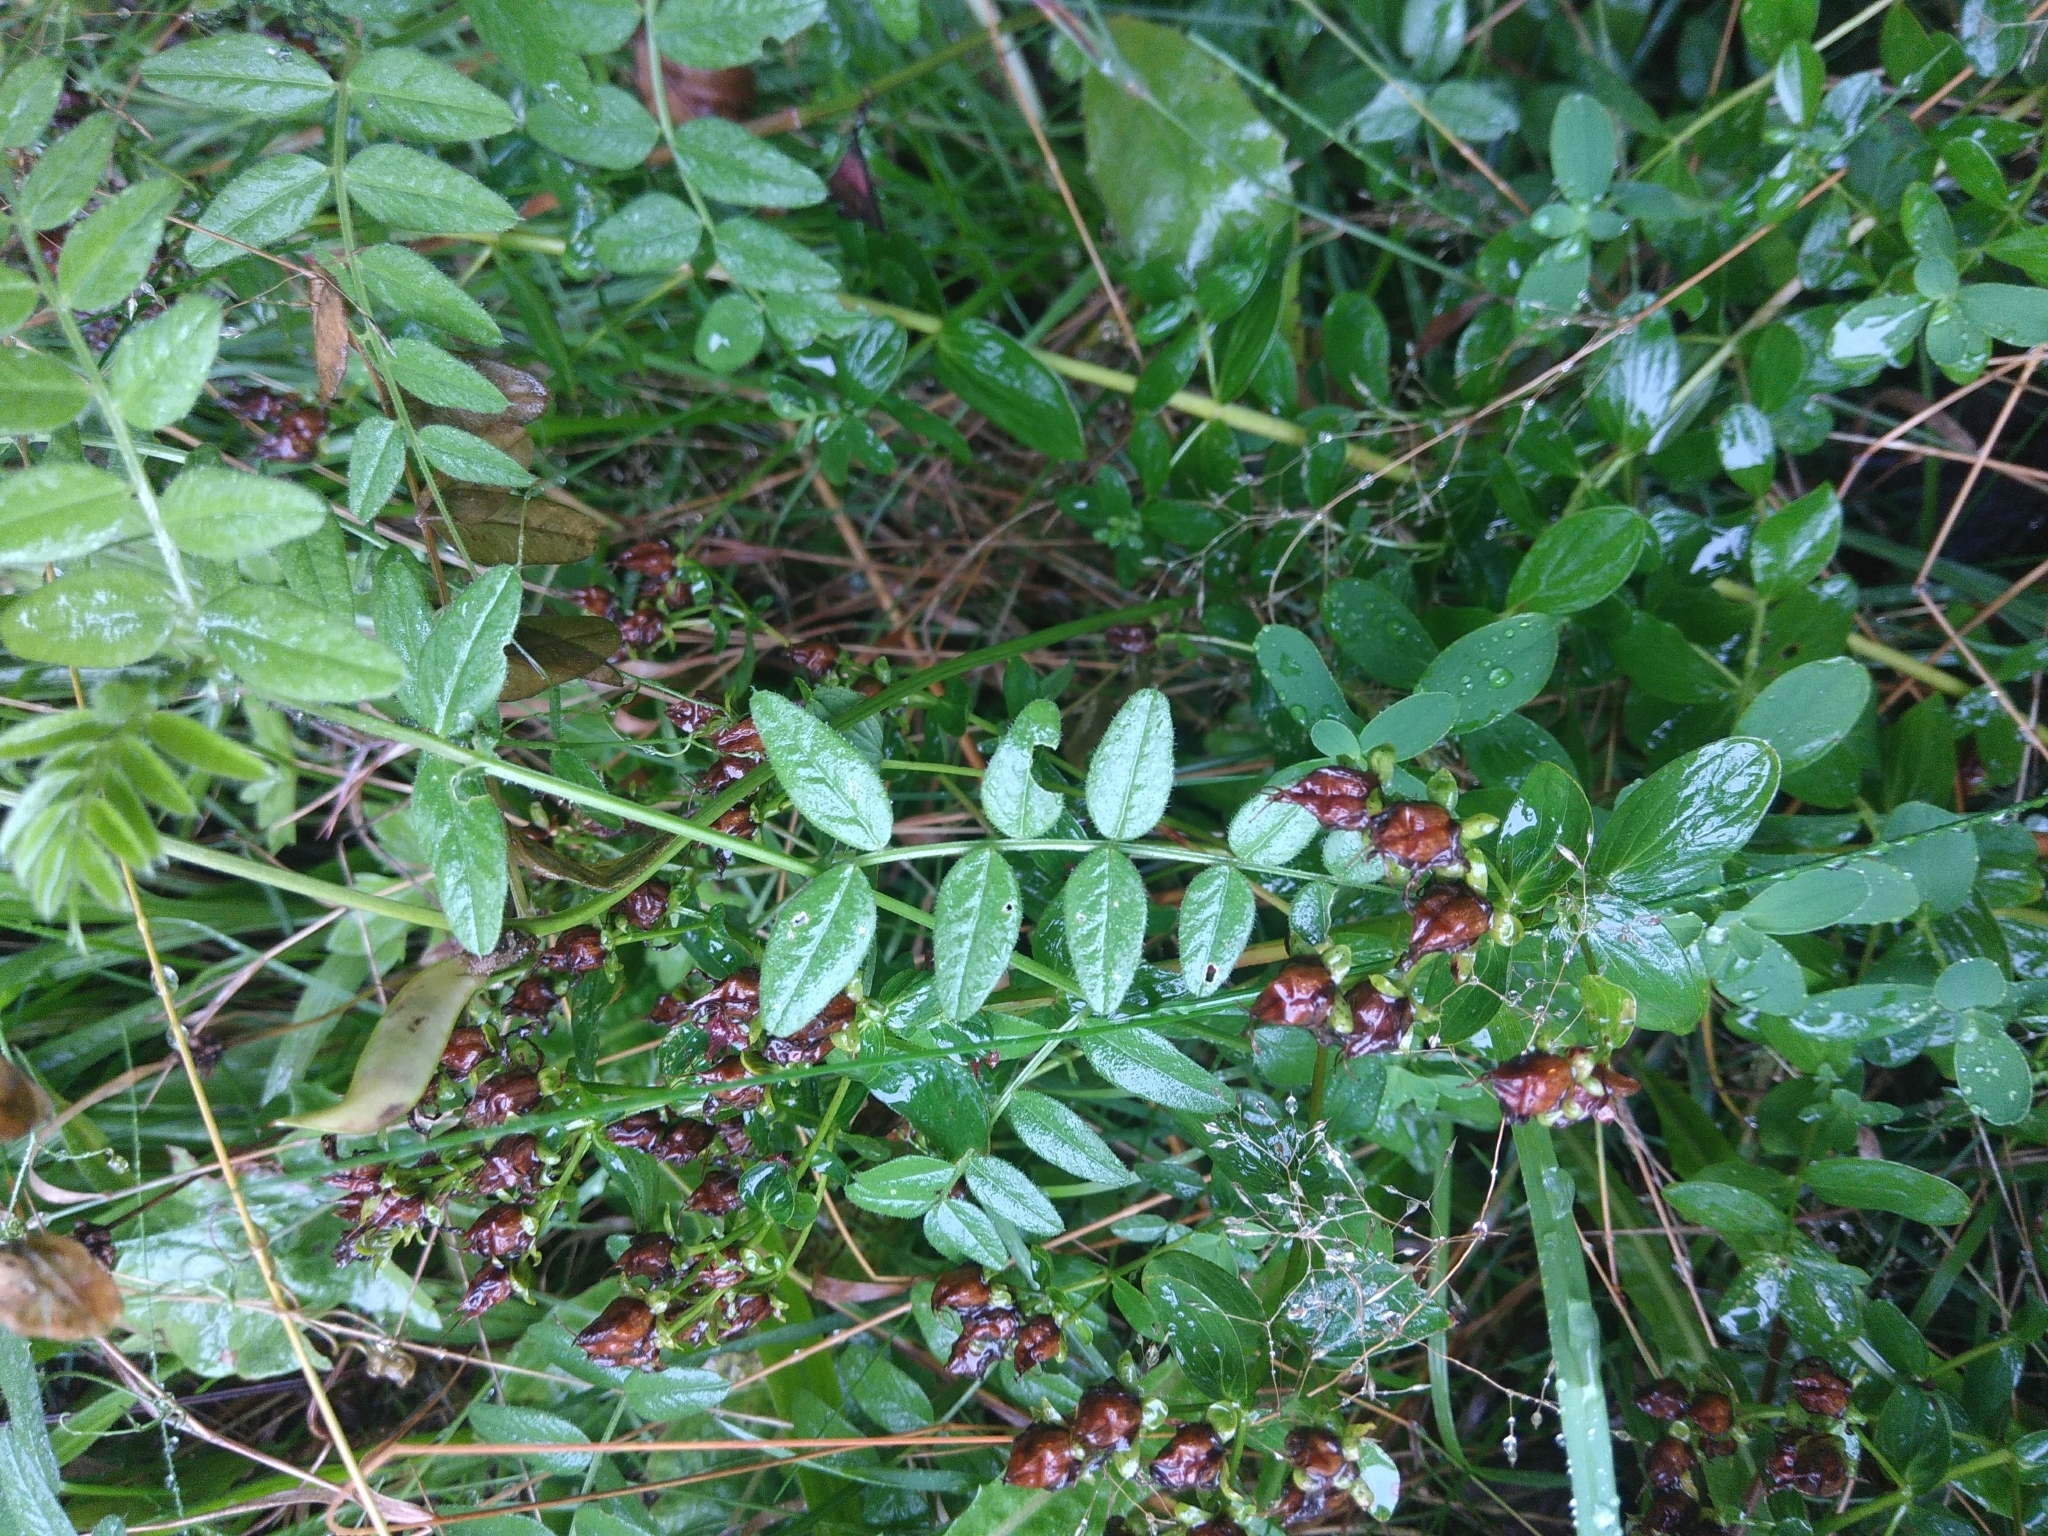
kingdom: Plantae
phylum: Tracheophyta
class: Magnoliopsida
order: Fabales
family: Fabaceae
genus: Vicia
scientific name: Vicia sepium
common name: Bush vetch
